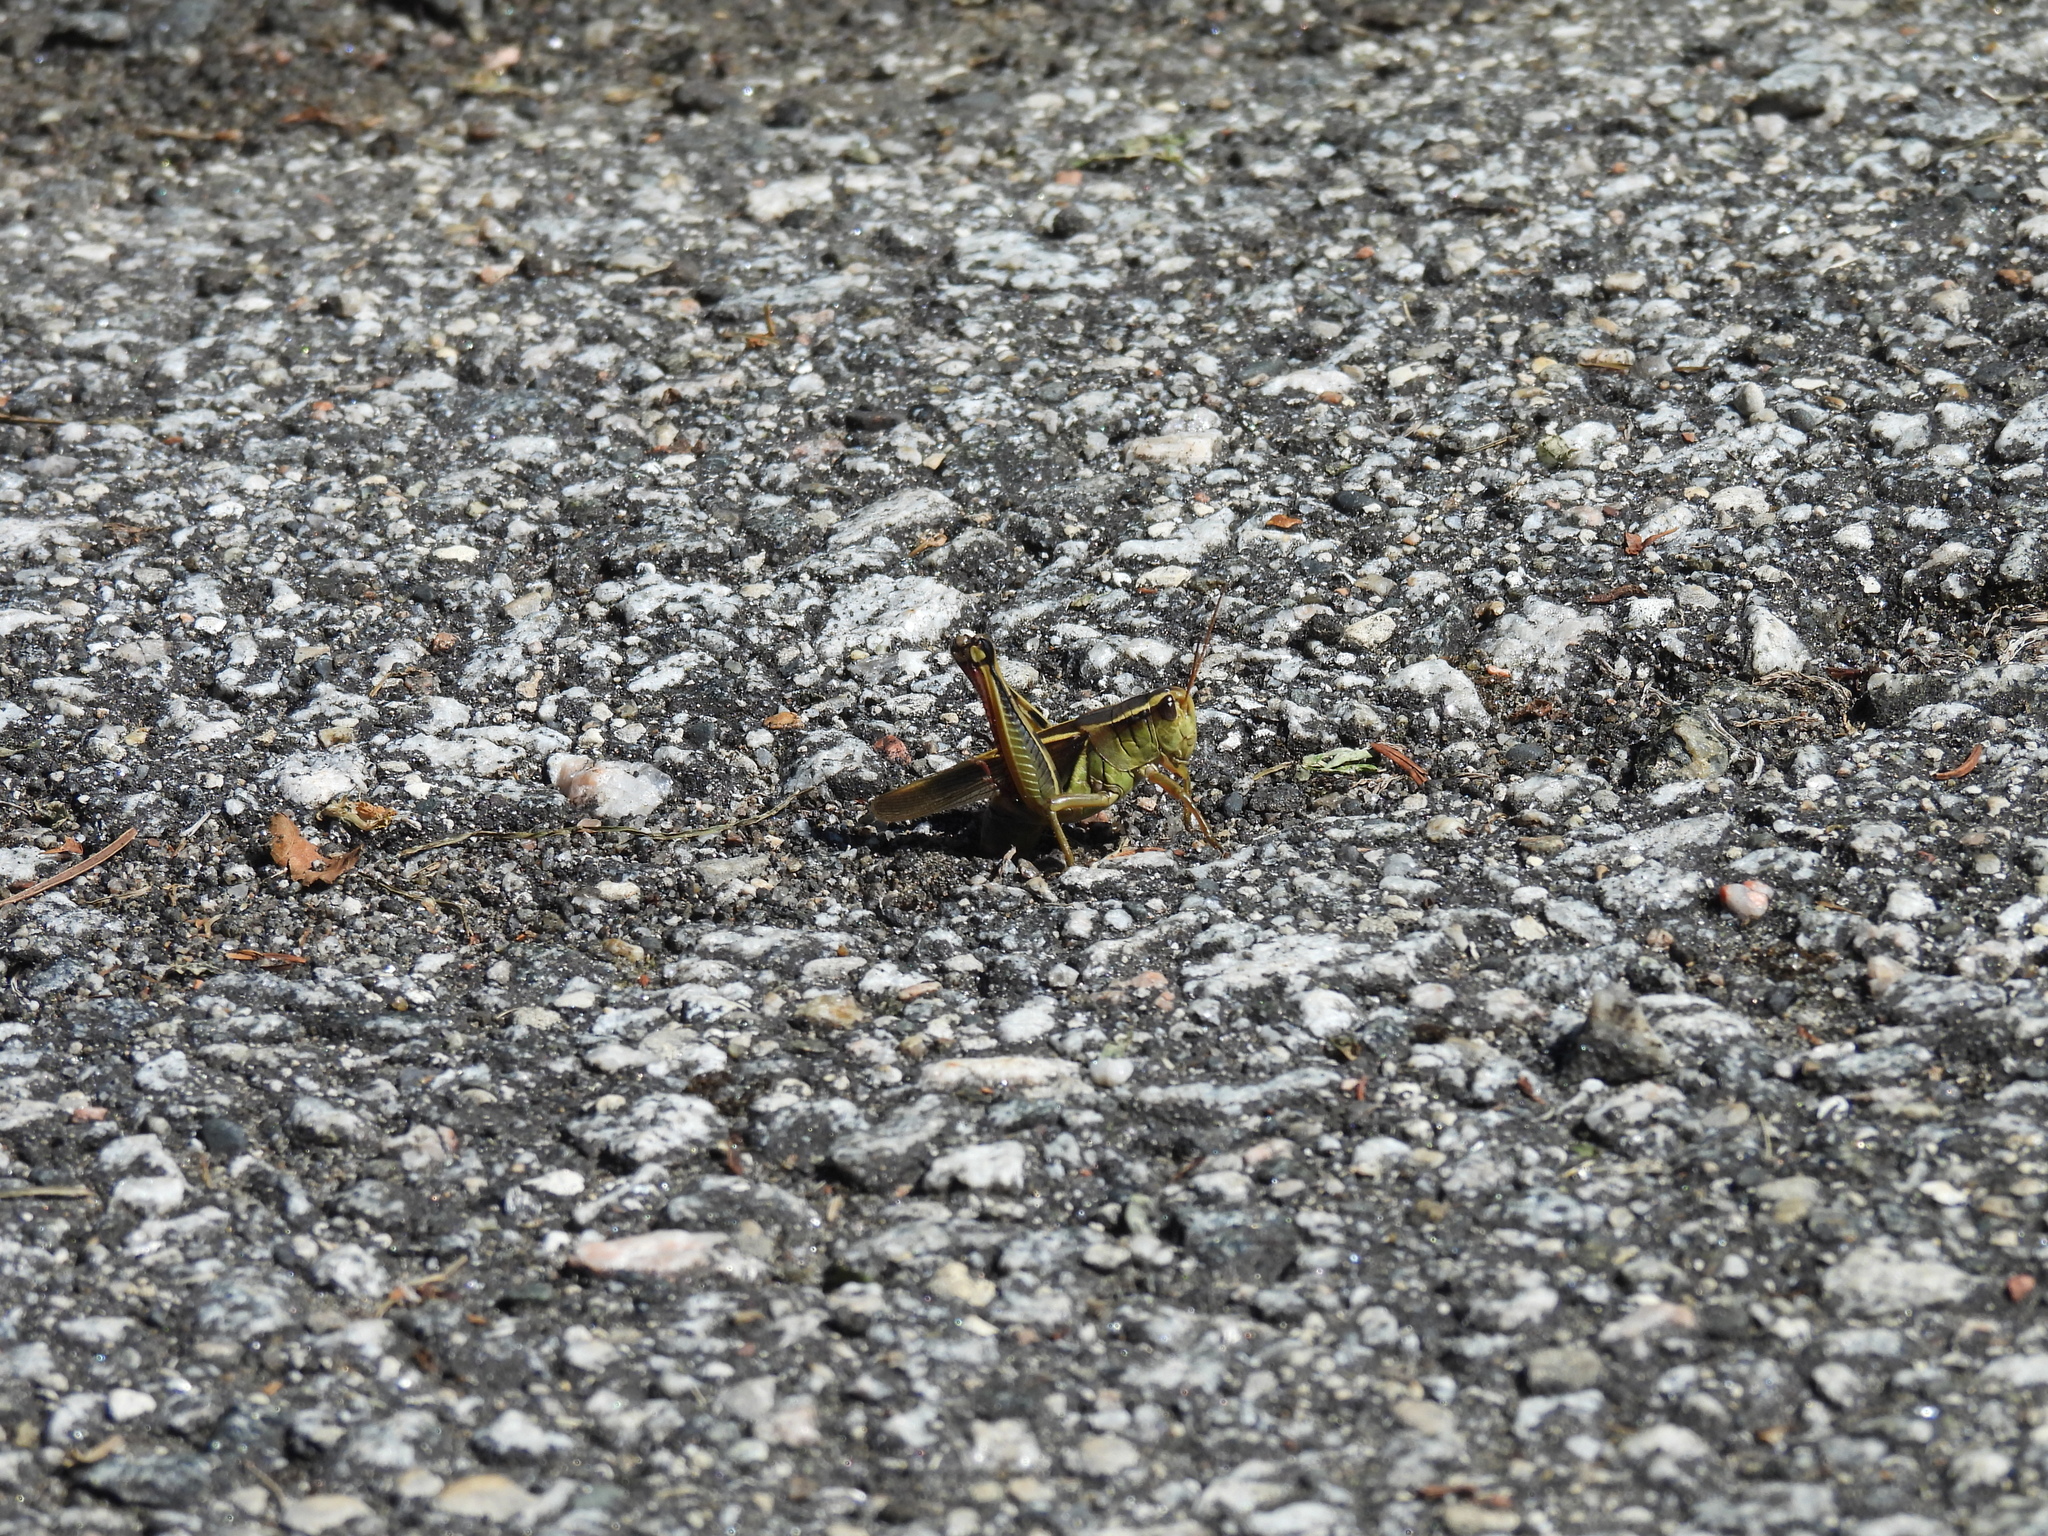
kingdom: Animalia
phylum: Arthropoda
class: Insecta
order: Orthoptera
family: Acrididae
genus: Melanoplus
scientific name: Melanoplus bivittatus
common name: Two-striped grasshopper
